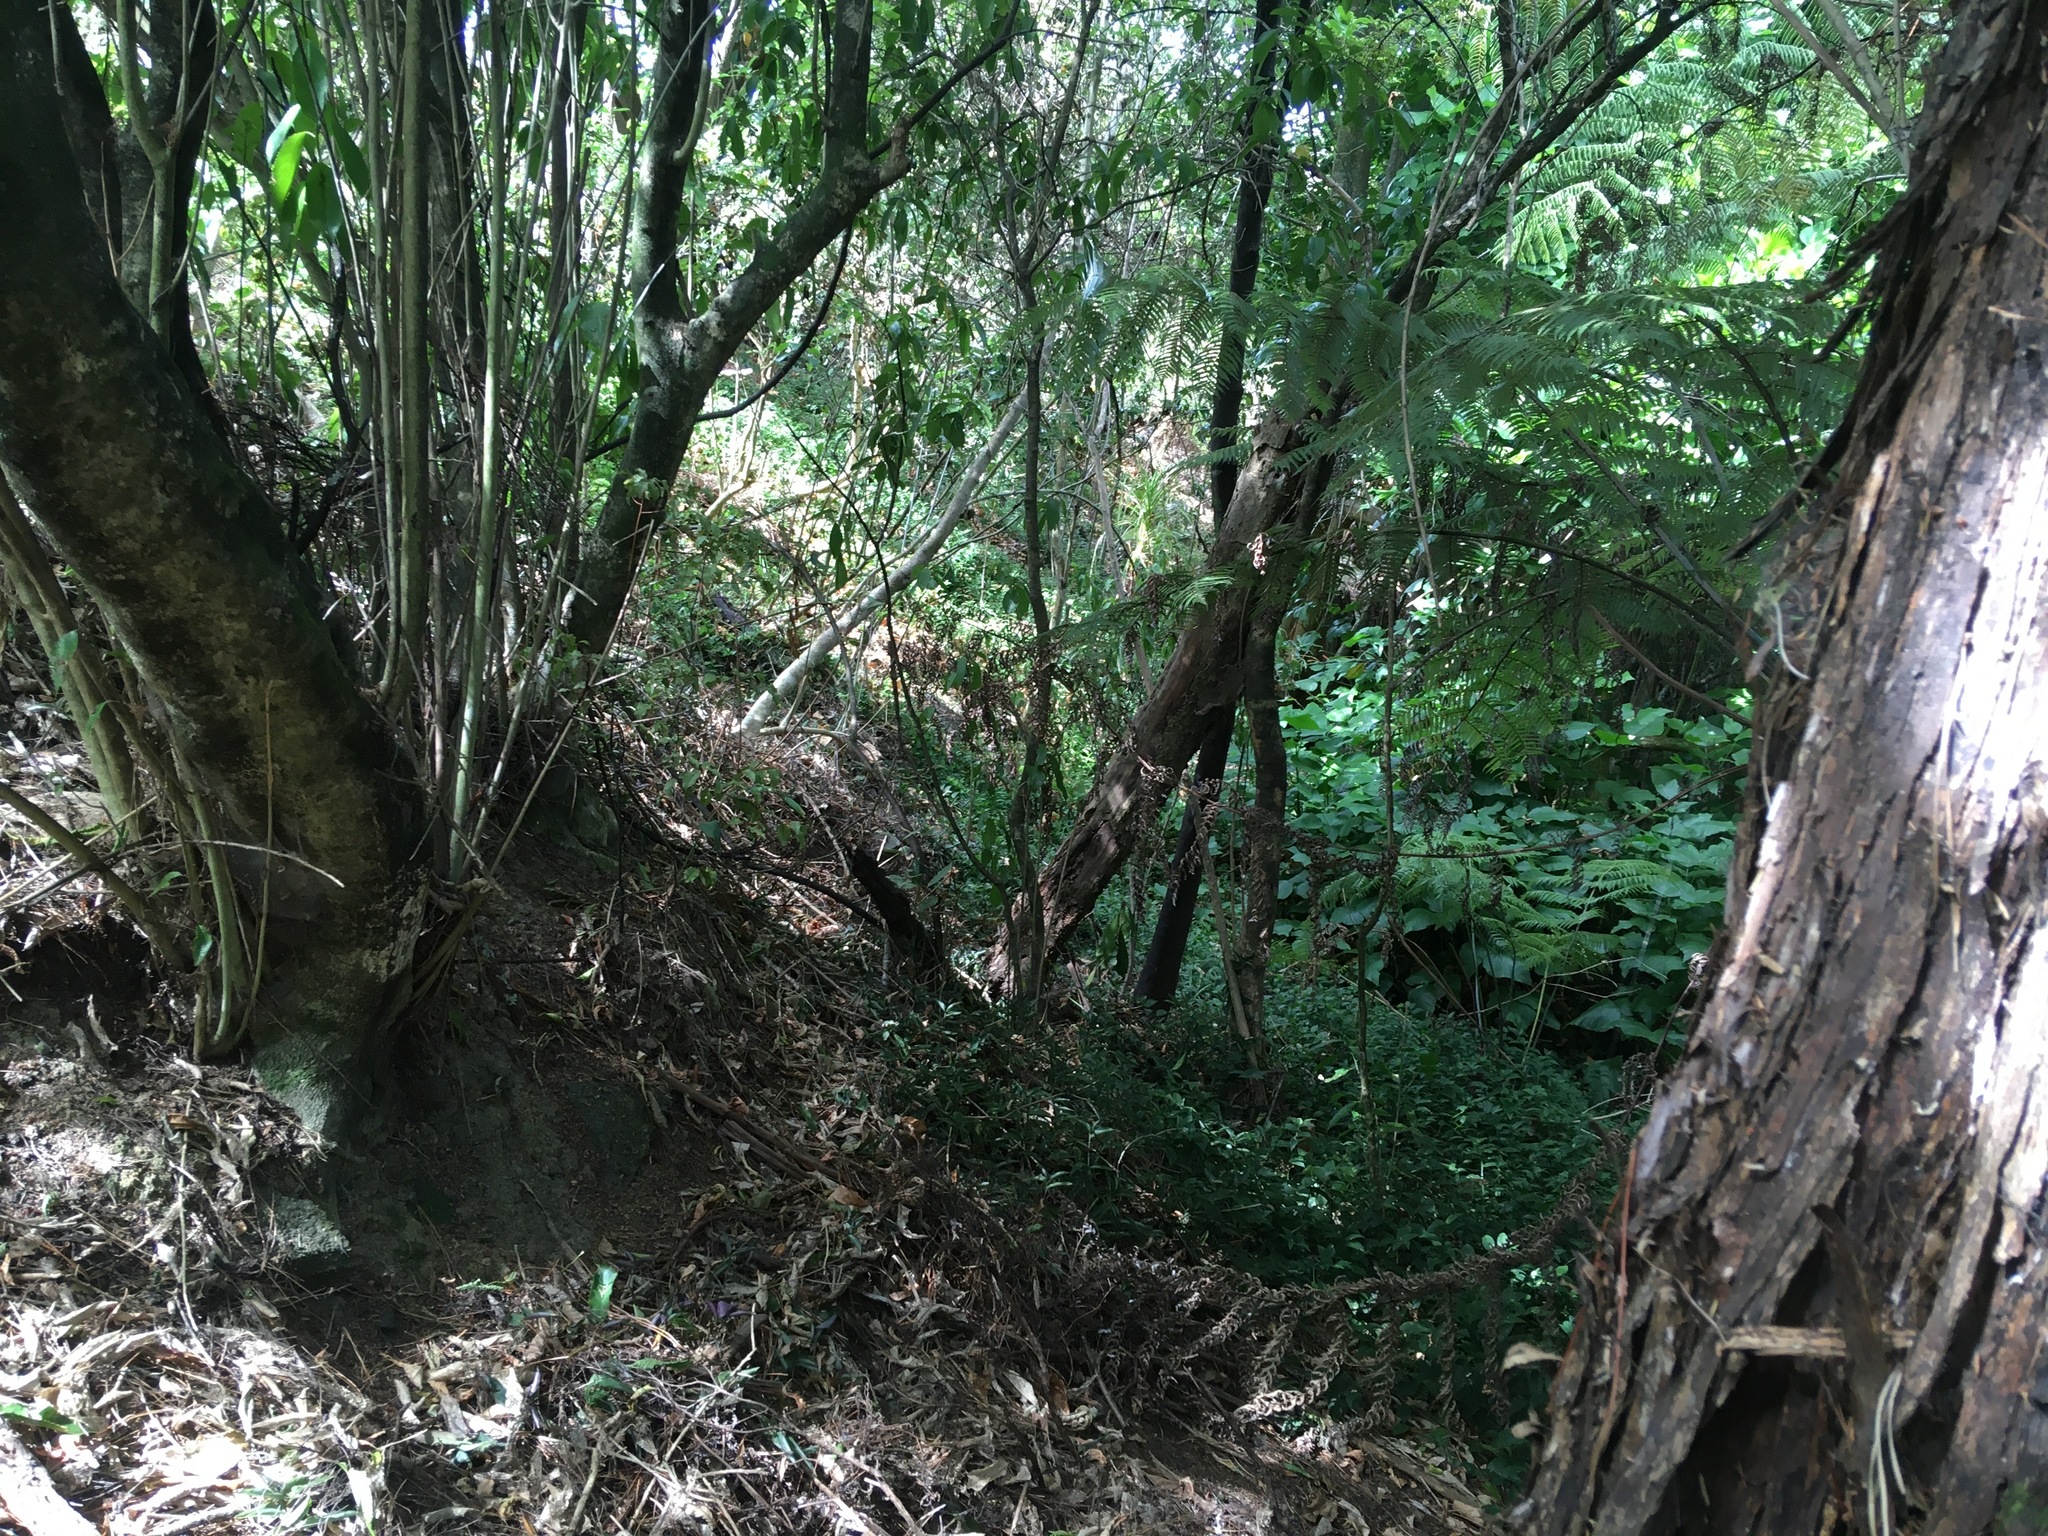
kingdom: Plantae
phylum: Tracheophyta
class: Liliopsida
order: Commelinales
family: Commelinaceae
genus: Tradescantia
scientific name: Tradescantia fluminensis
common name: Wandering-jew
